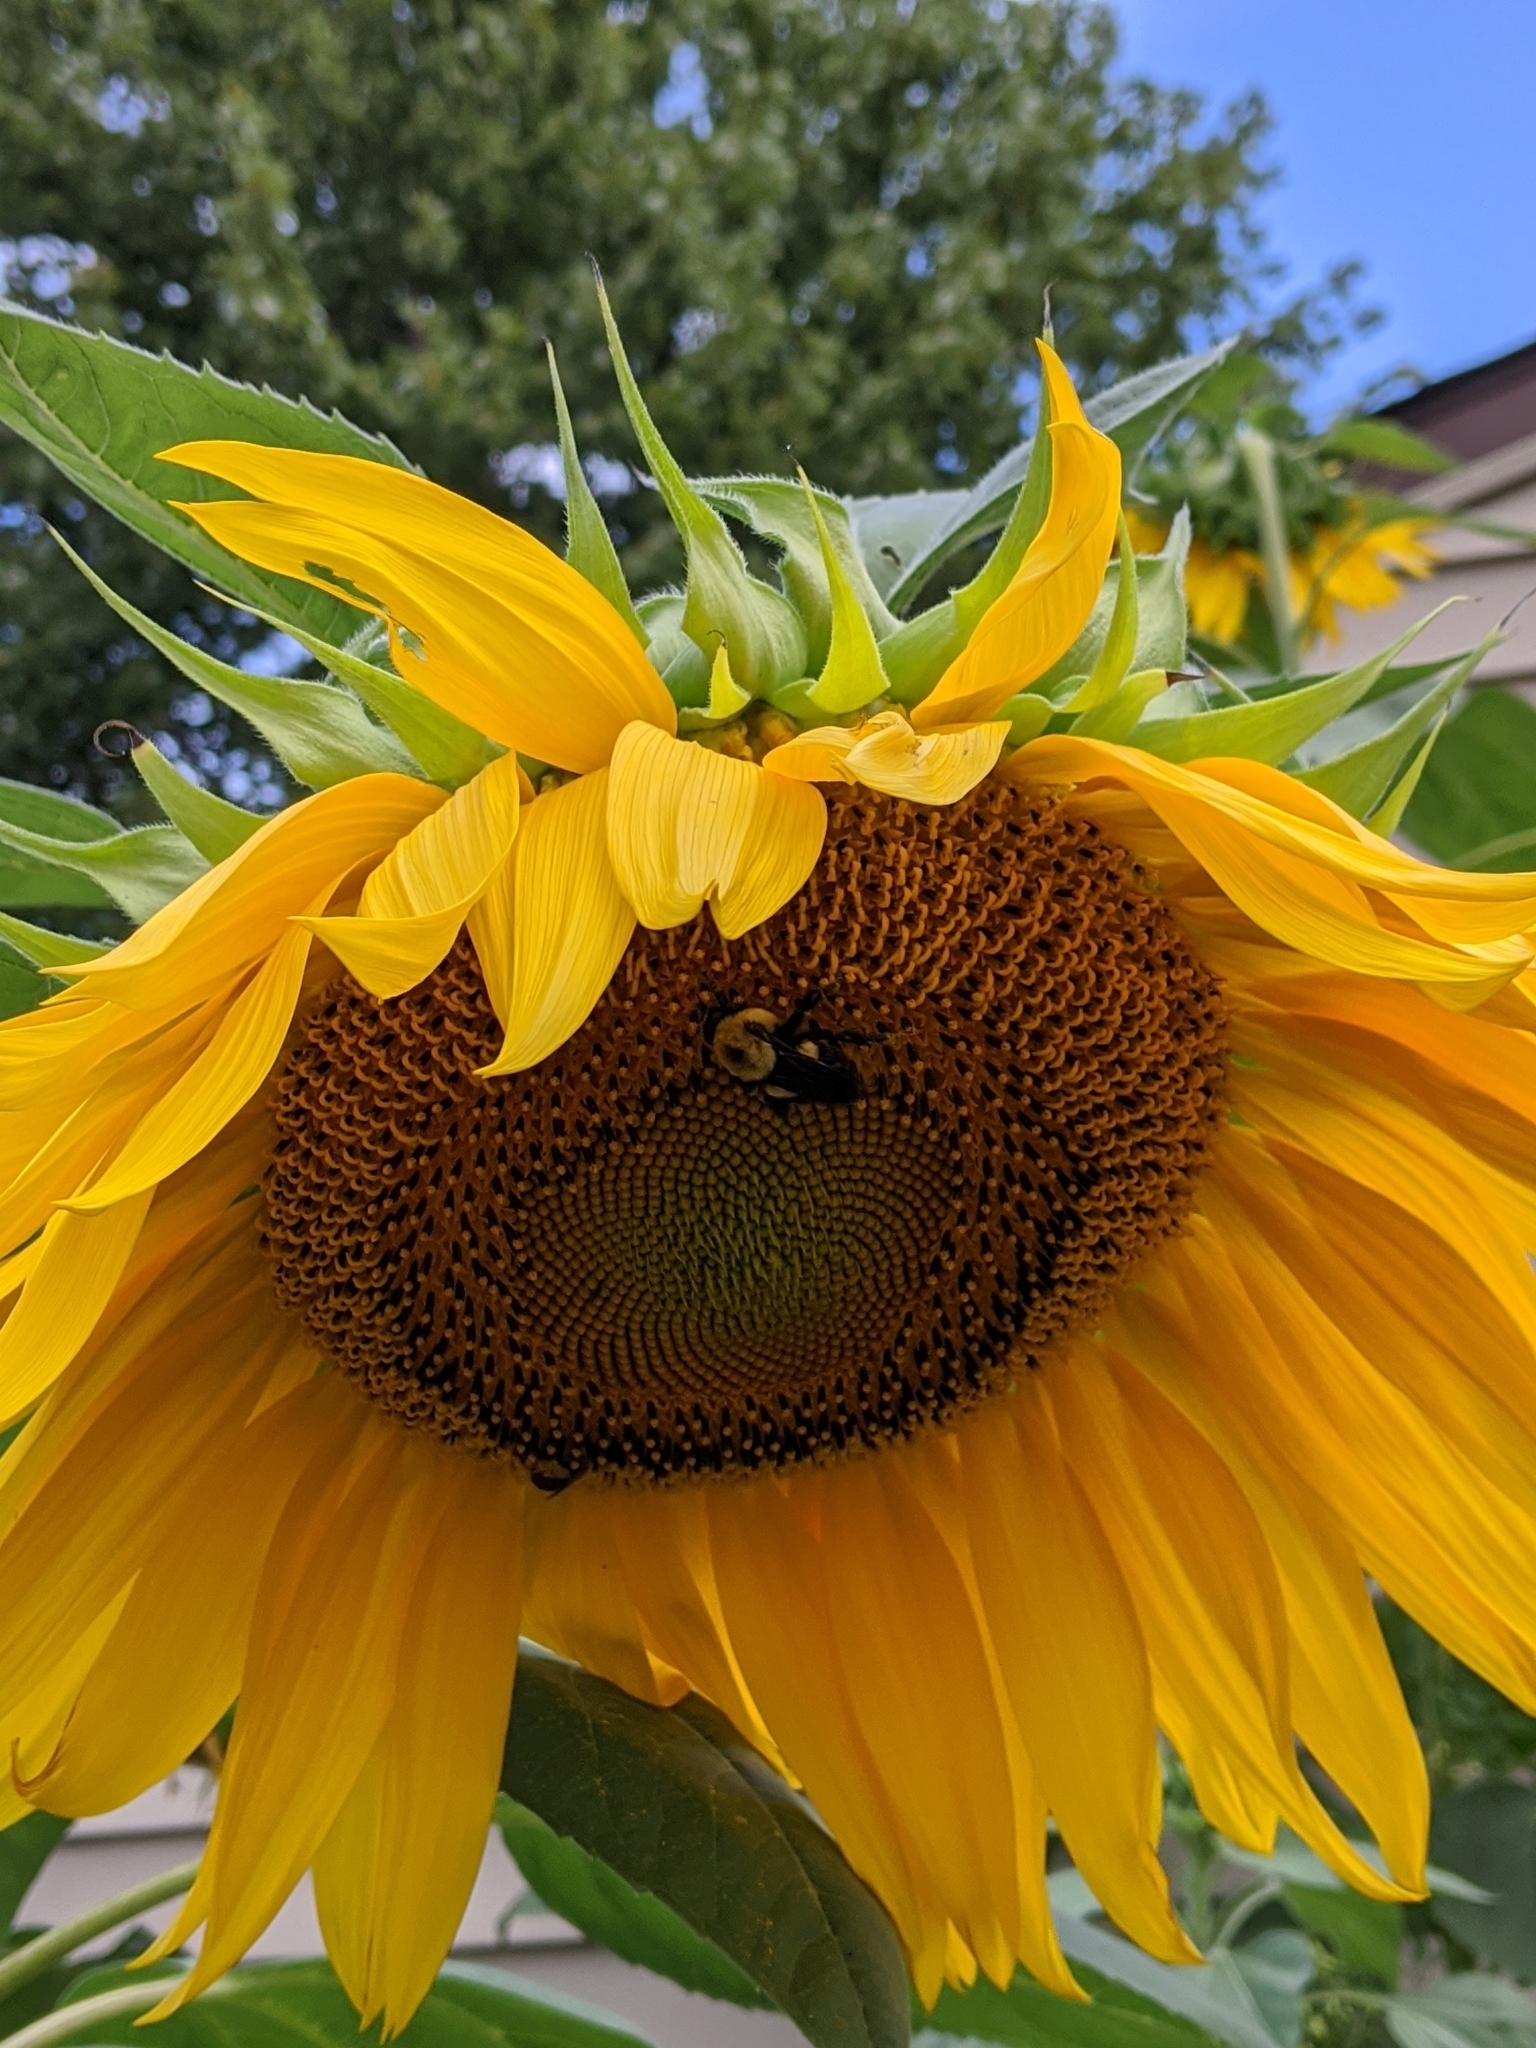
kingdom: Animalia
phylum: Arthropoda
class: Insecta
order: Hymenoptera
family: Apidae
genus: Bombus
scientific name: Bombus griseocollis
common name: Brown-belted bumble bee
